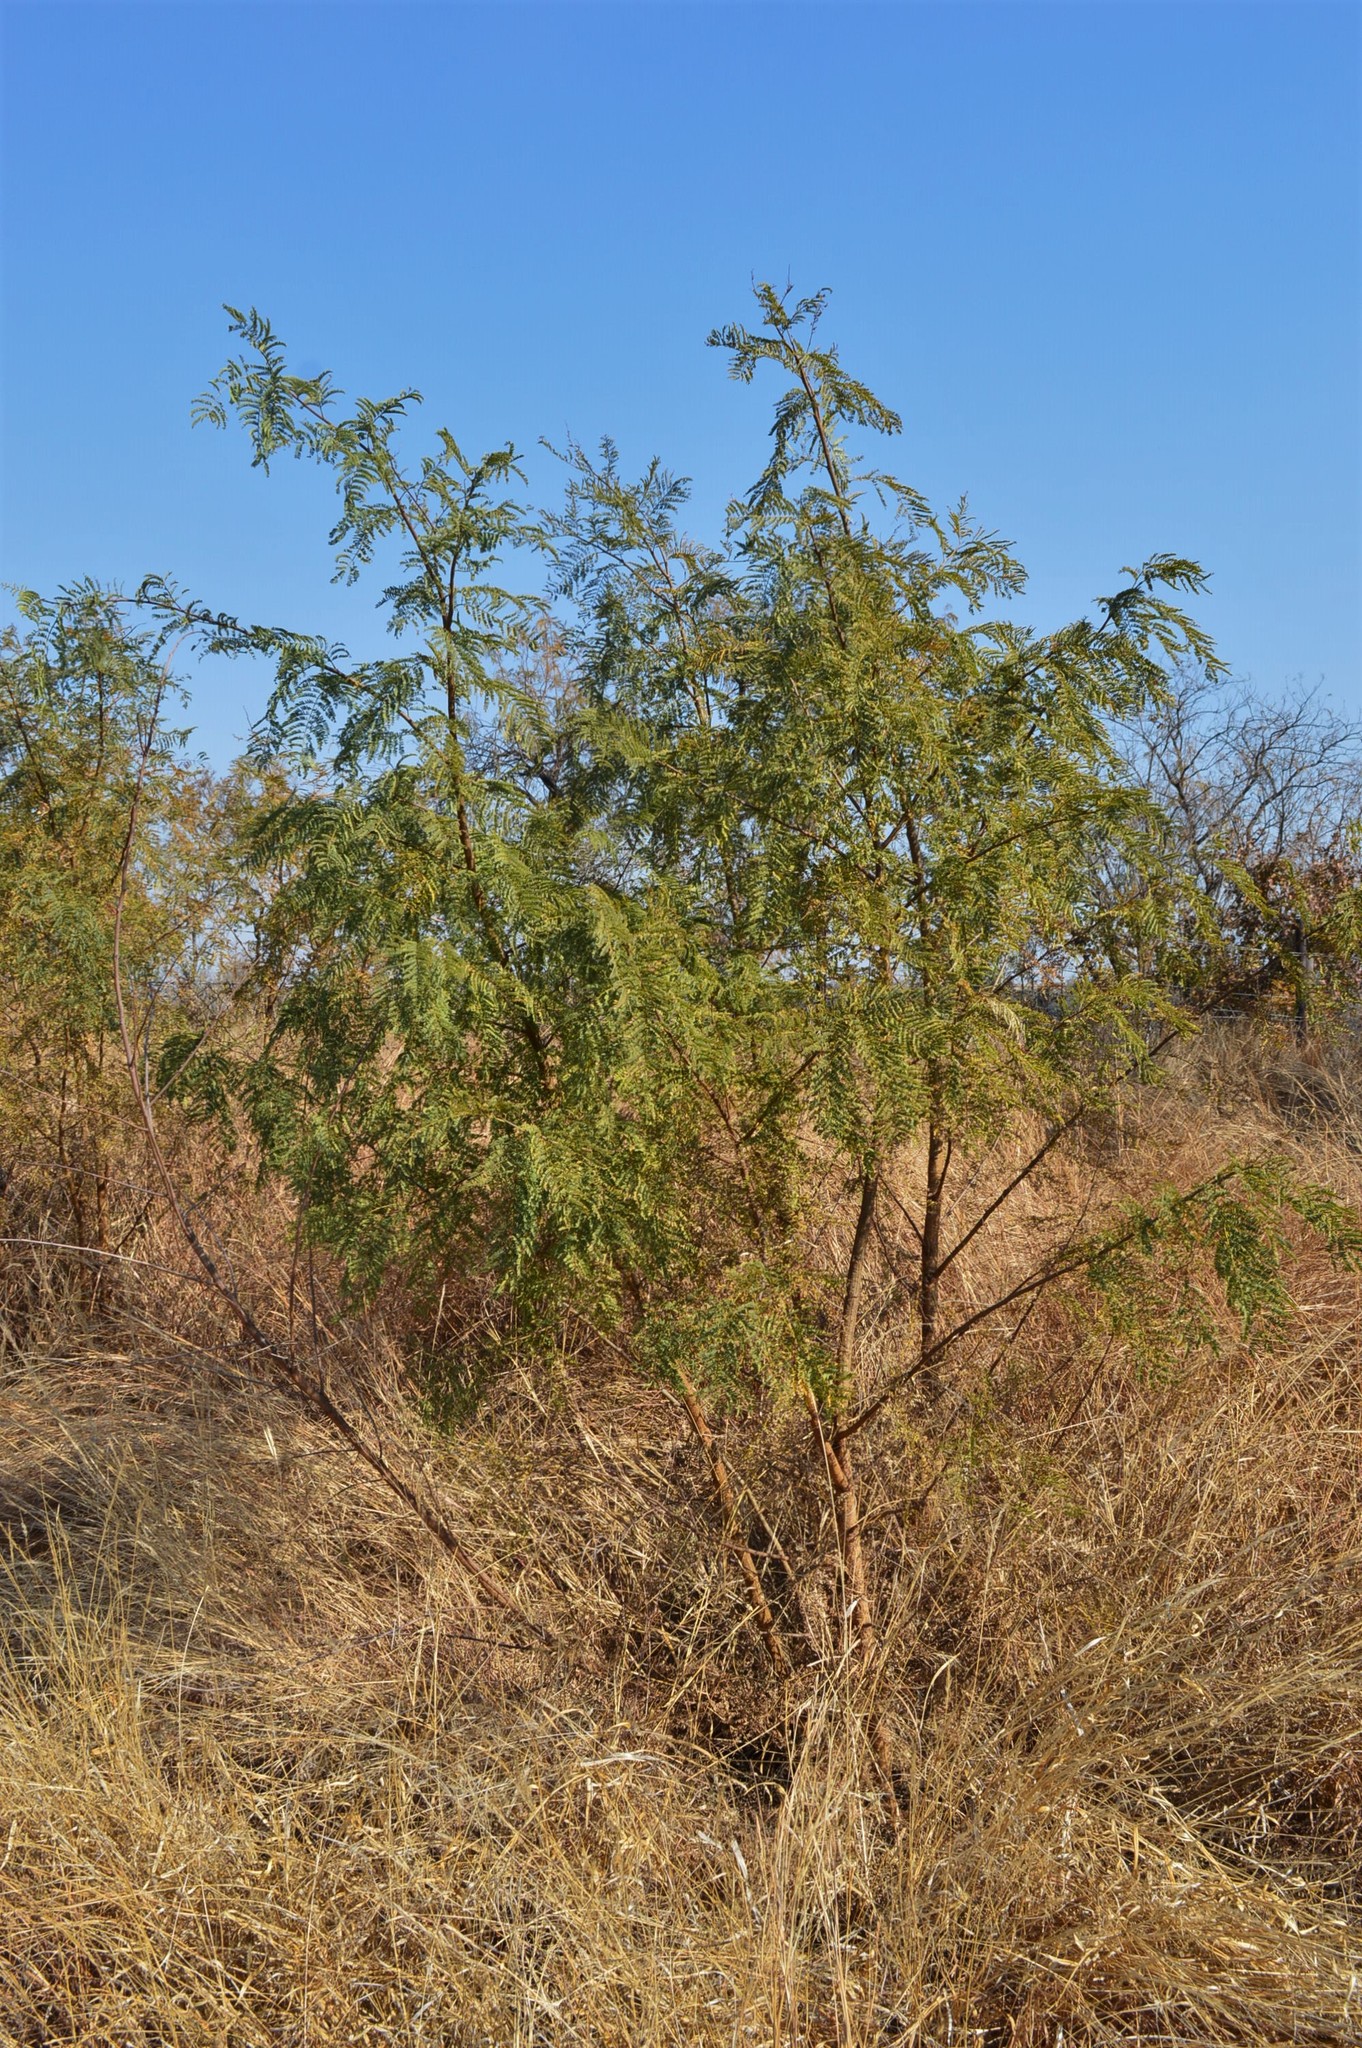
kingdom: Plantae
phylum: Tracheophyta
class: Magnoliopsida
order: Fabales
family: Fabaceae
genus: Senegalia
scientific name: Senegalia caffra
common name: Cat thorn
